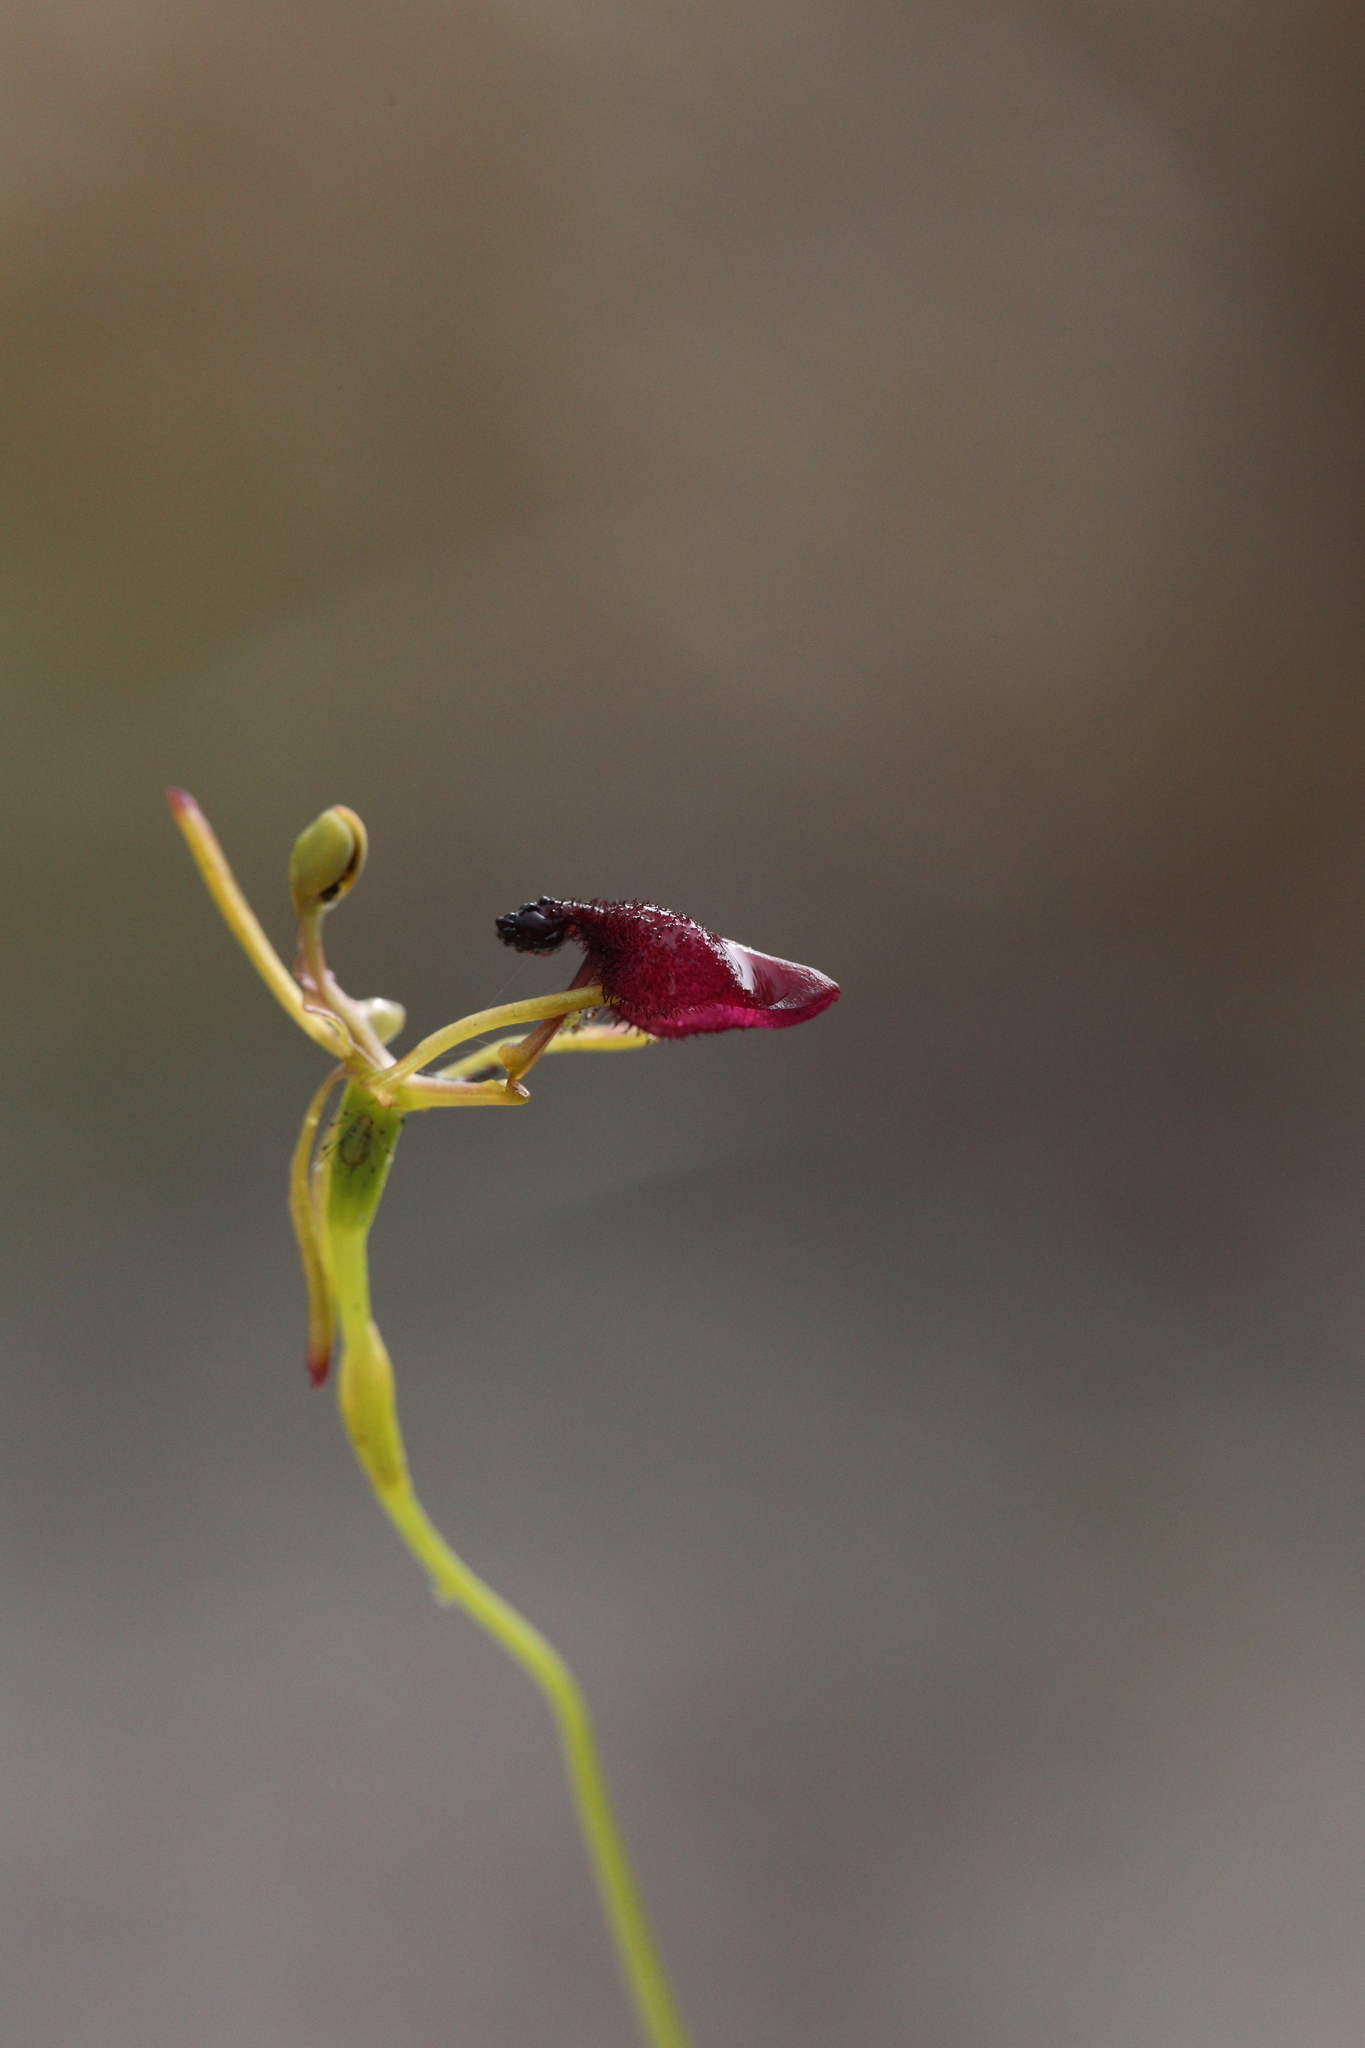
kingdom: Plantae
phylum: Tracheophyta
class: Liliopsida
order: Asparagales
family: Orchidaceae
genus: Drakaea
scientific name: Drakaea glyptodon
